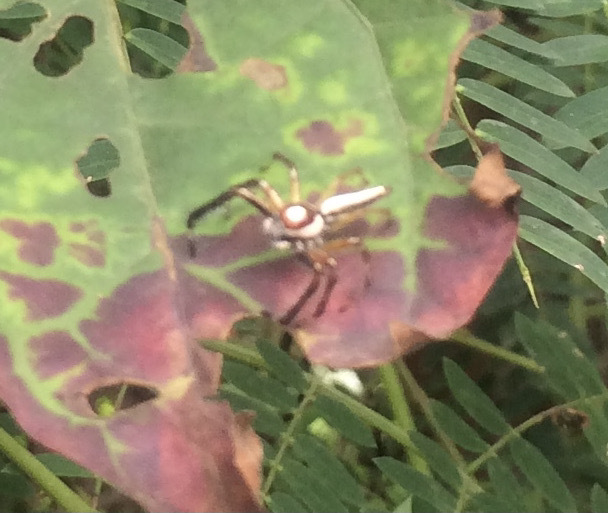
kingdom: Animalia
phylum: Arthropoda
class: Arachnida
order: Araneae
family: Salticidae
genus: Telamonia
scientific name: Telamonia dimidiata
